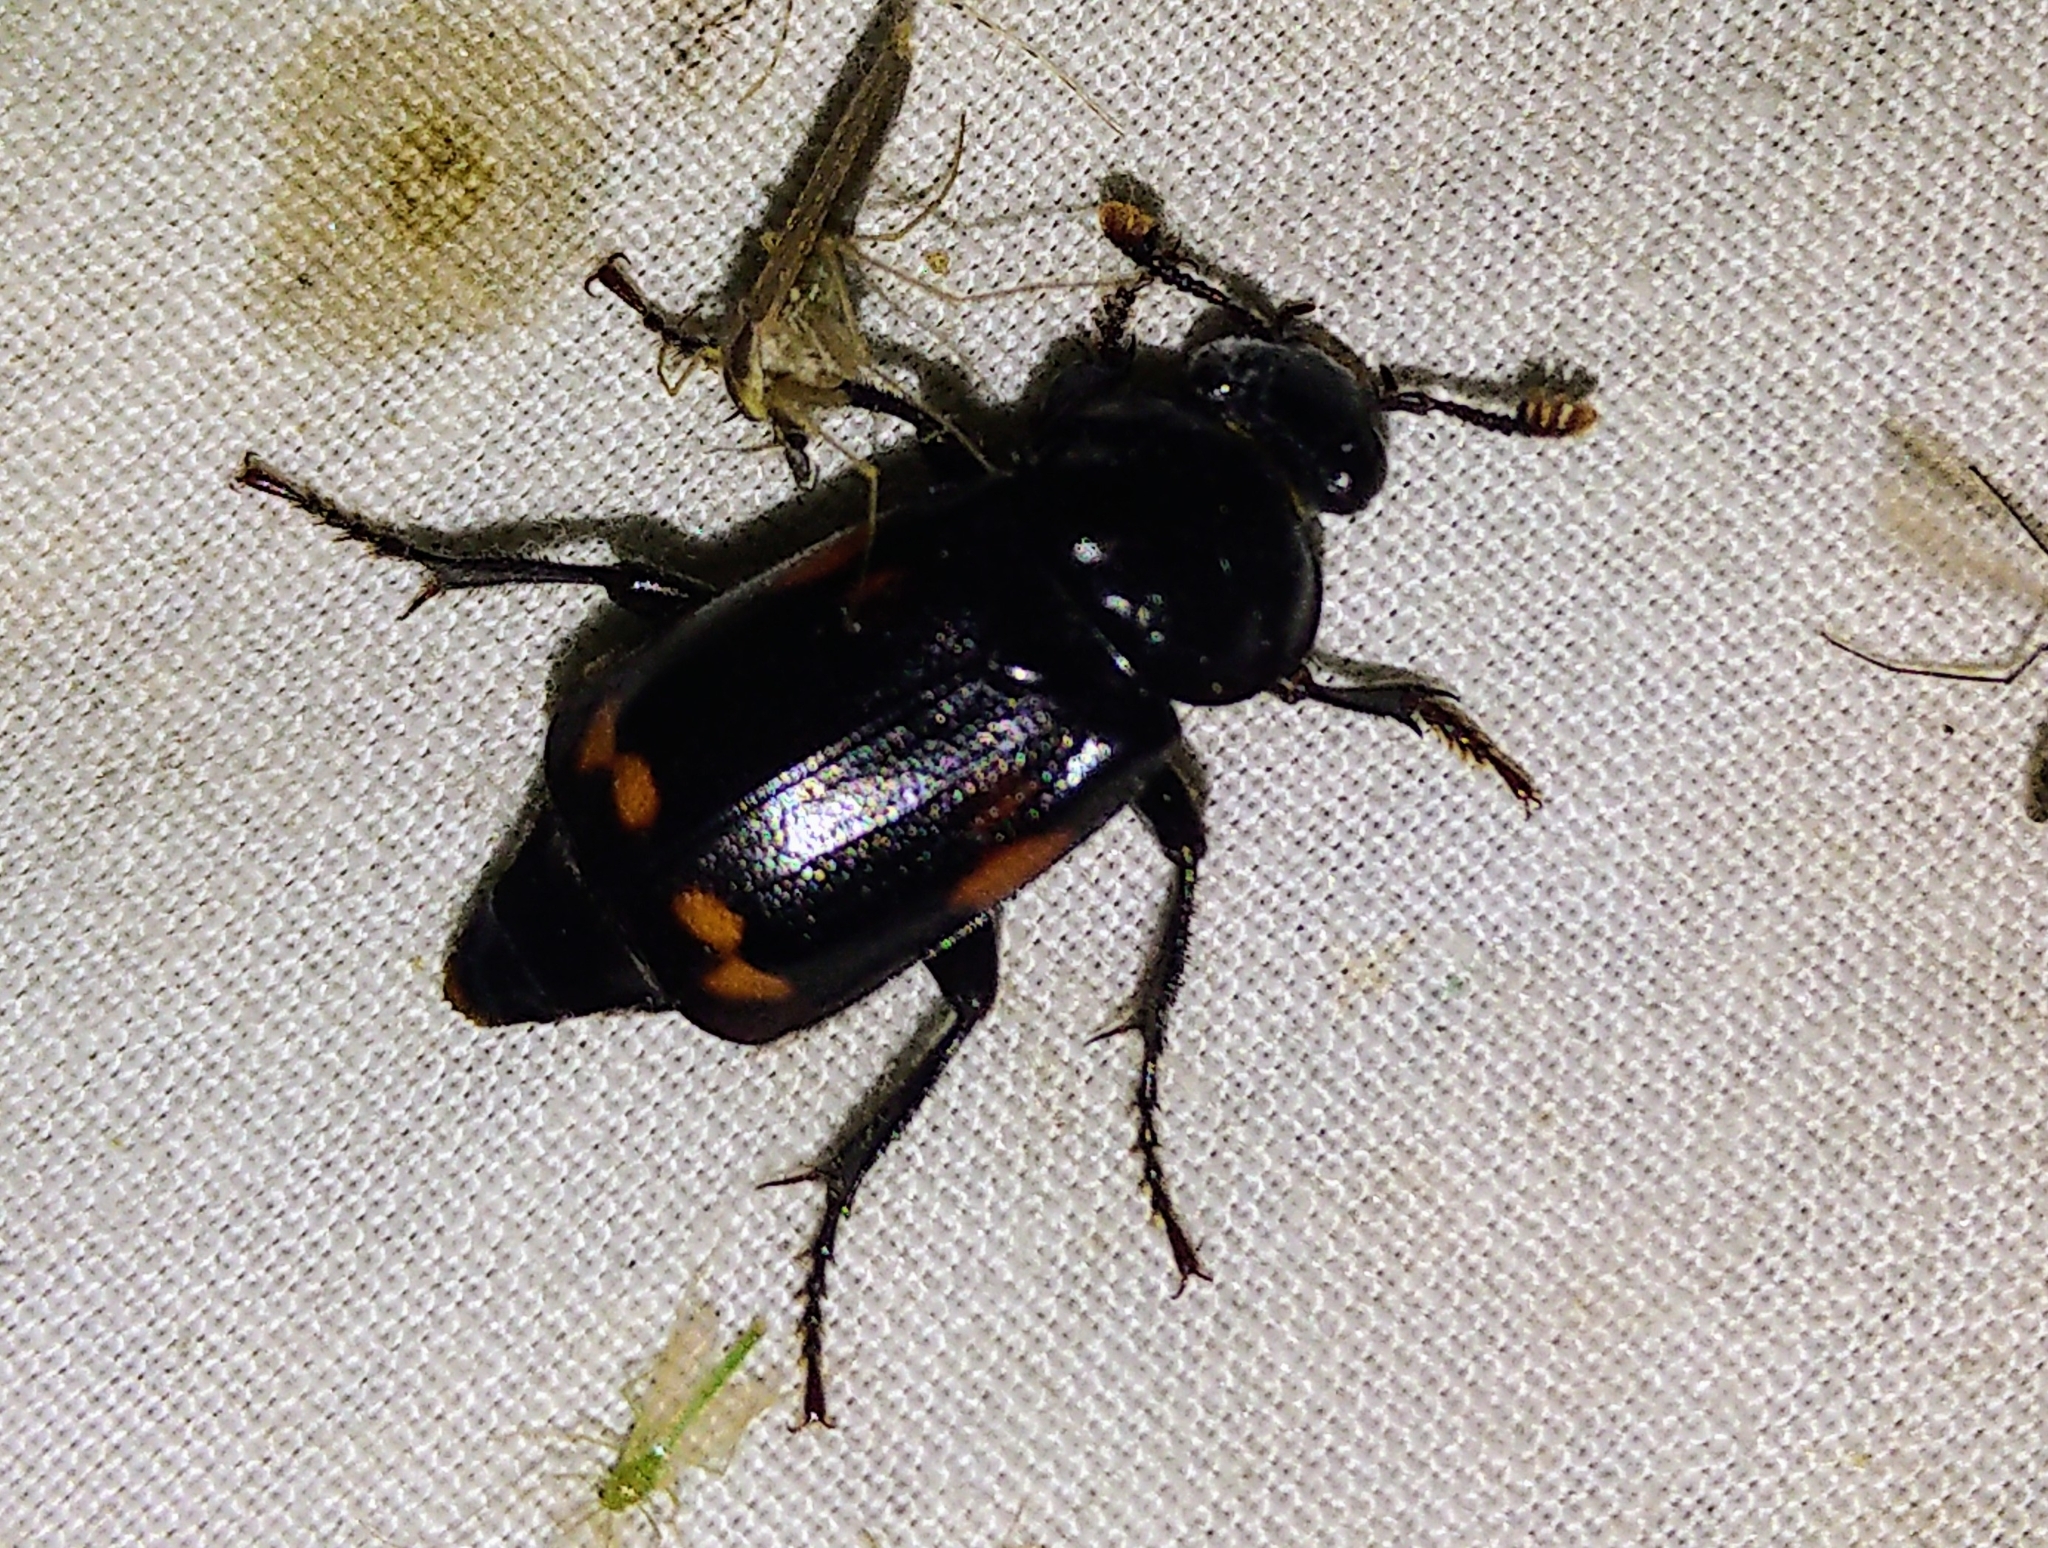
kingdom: Animalia
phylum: Arthropoda
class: Insecta
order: Coleoptera
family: Staphylinidae
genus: Nicrophorus
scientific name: Nicrophorus pustulatus
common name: Pustulated carrion beetle
